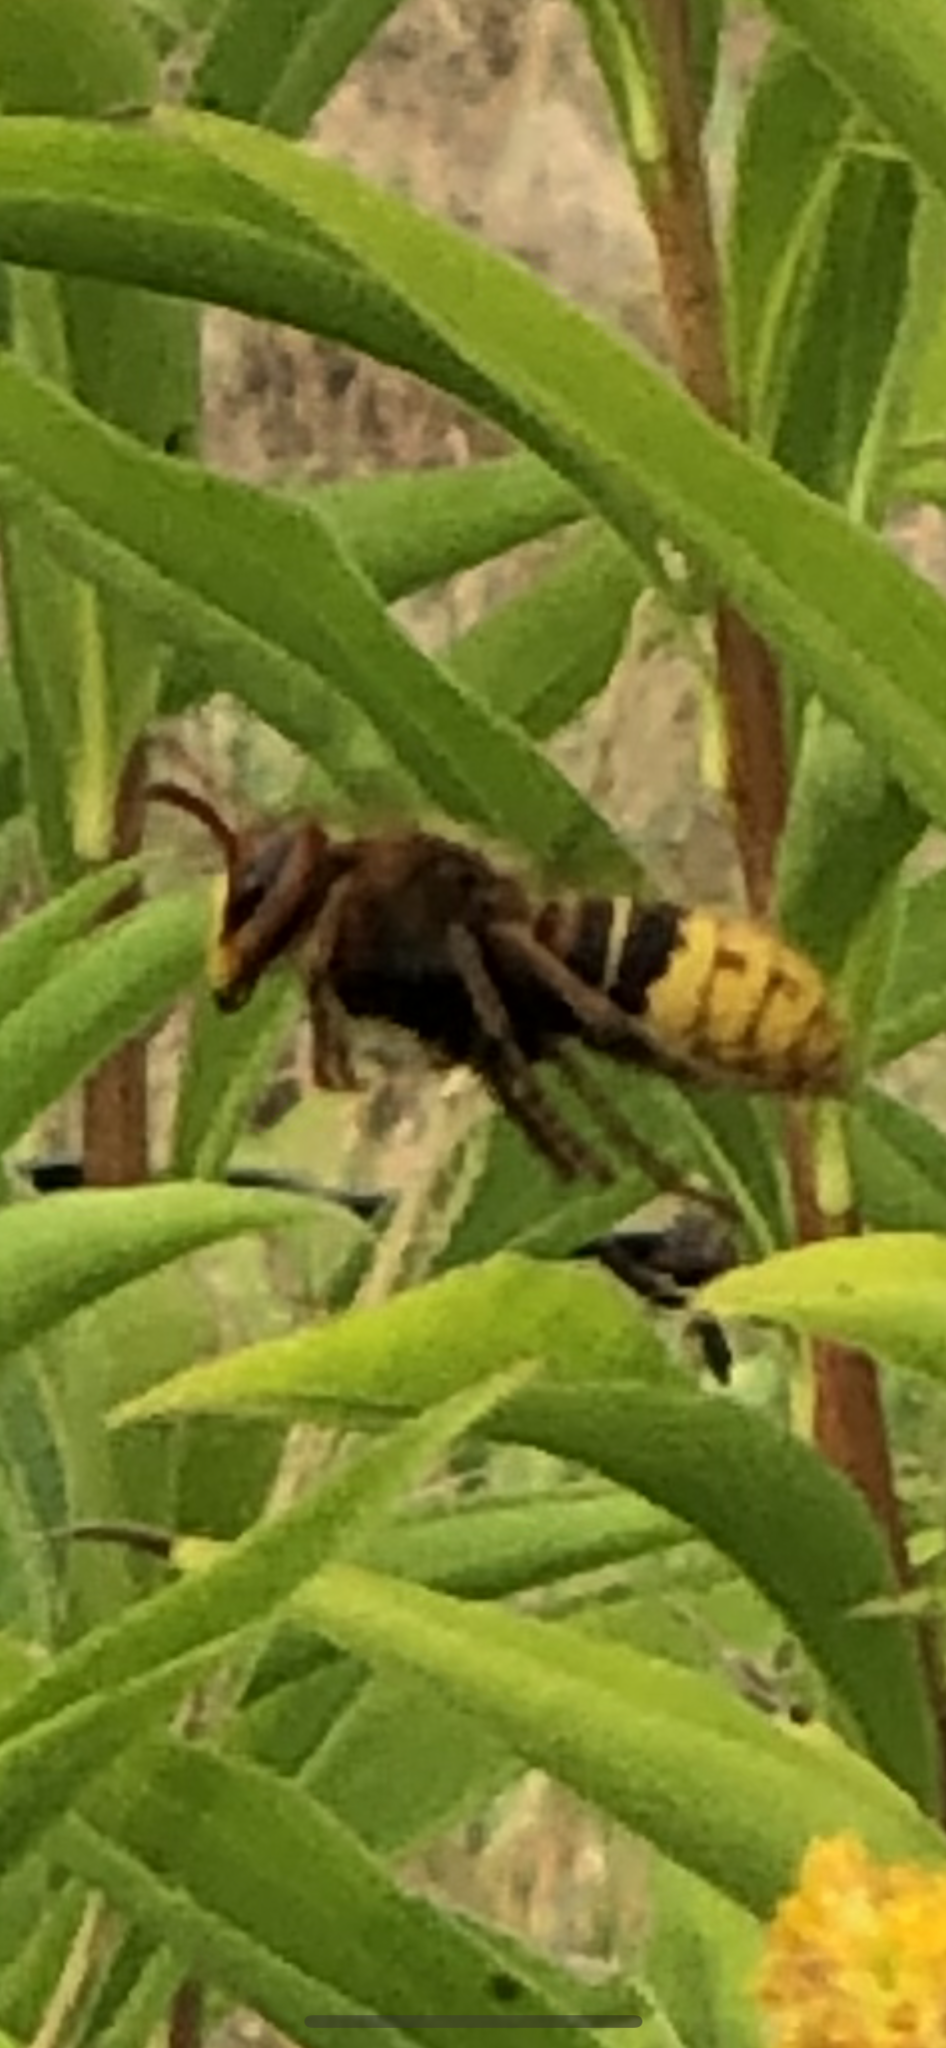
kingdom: Animalia
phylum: Arthropoda
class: Insecta
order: Hymenoptera
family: Vespidae
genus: Vespa
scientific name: Vespa crabro
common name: Hornet
